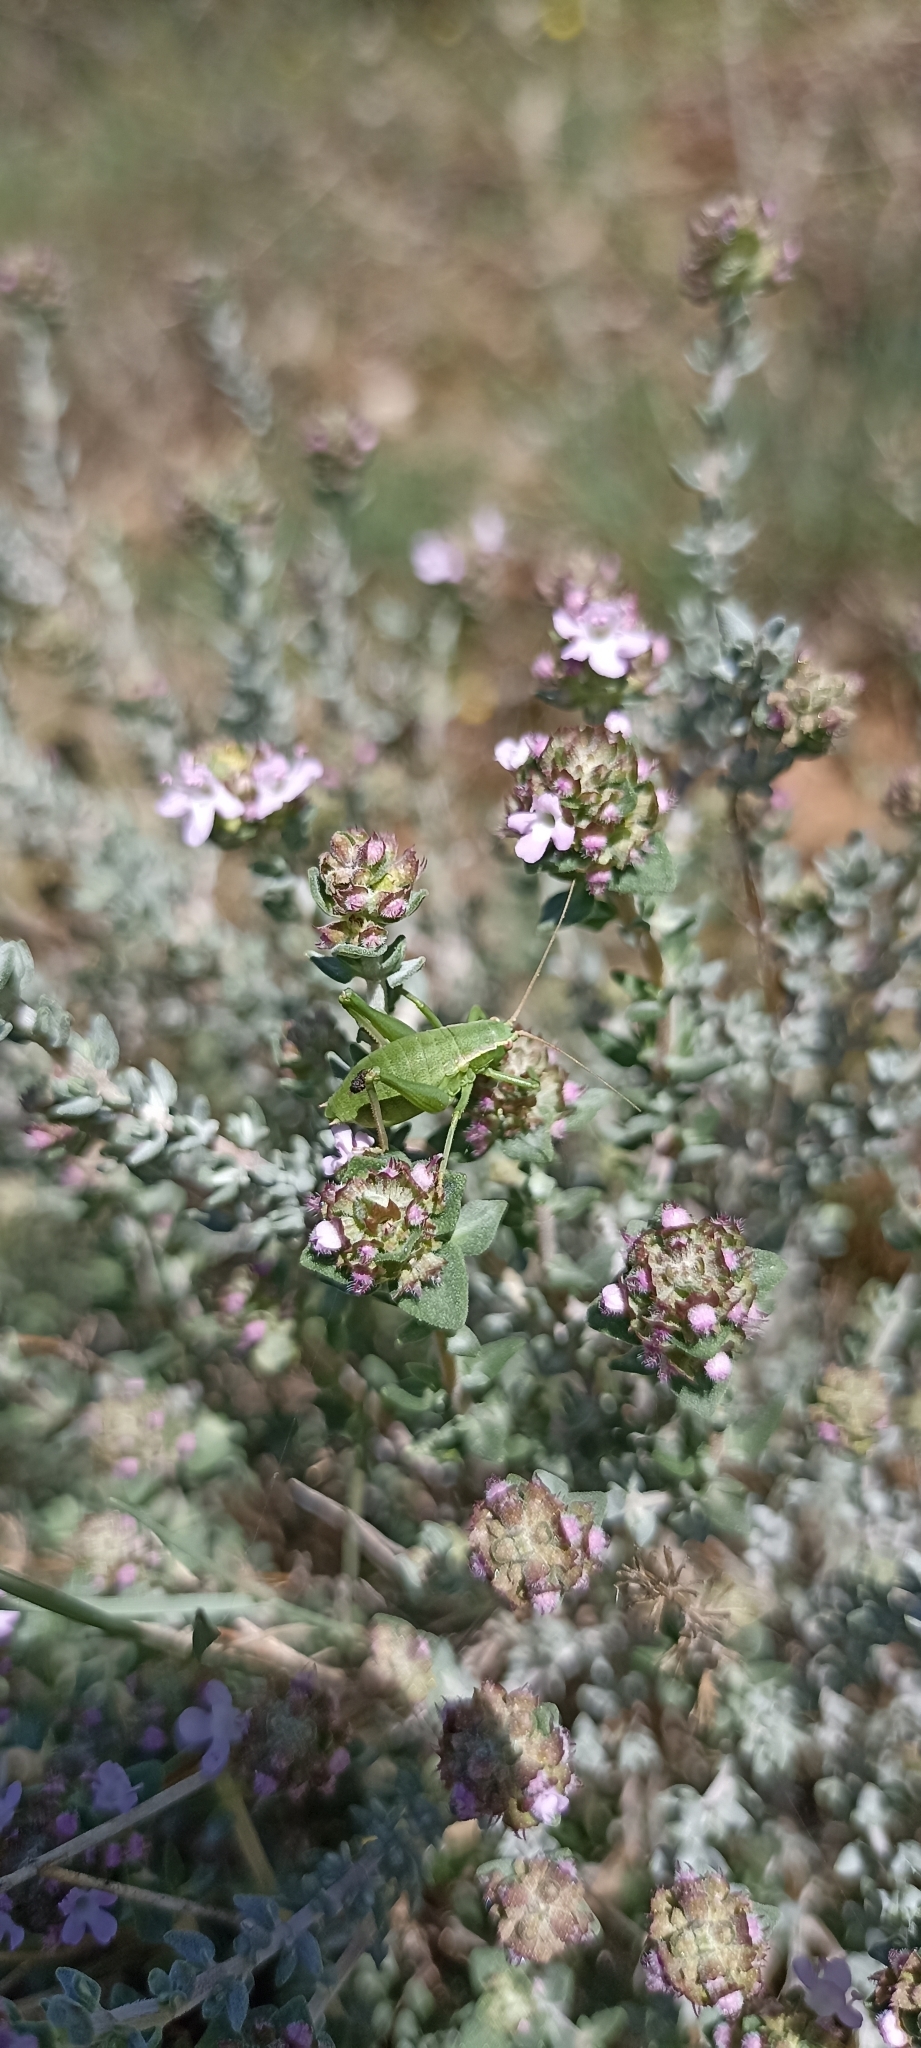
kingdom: Animalia
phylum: Arthropoda
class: Insecta
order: Orthoptera
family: Tettigoniidae
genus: Isophya
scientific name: Isophya pyrenaea
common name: Pyrenean plump bush-cricket
